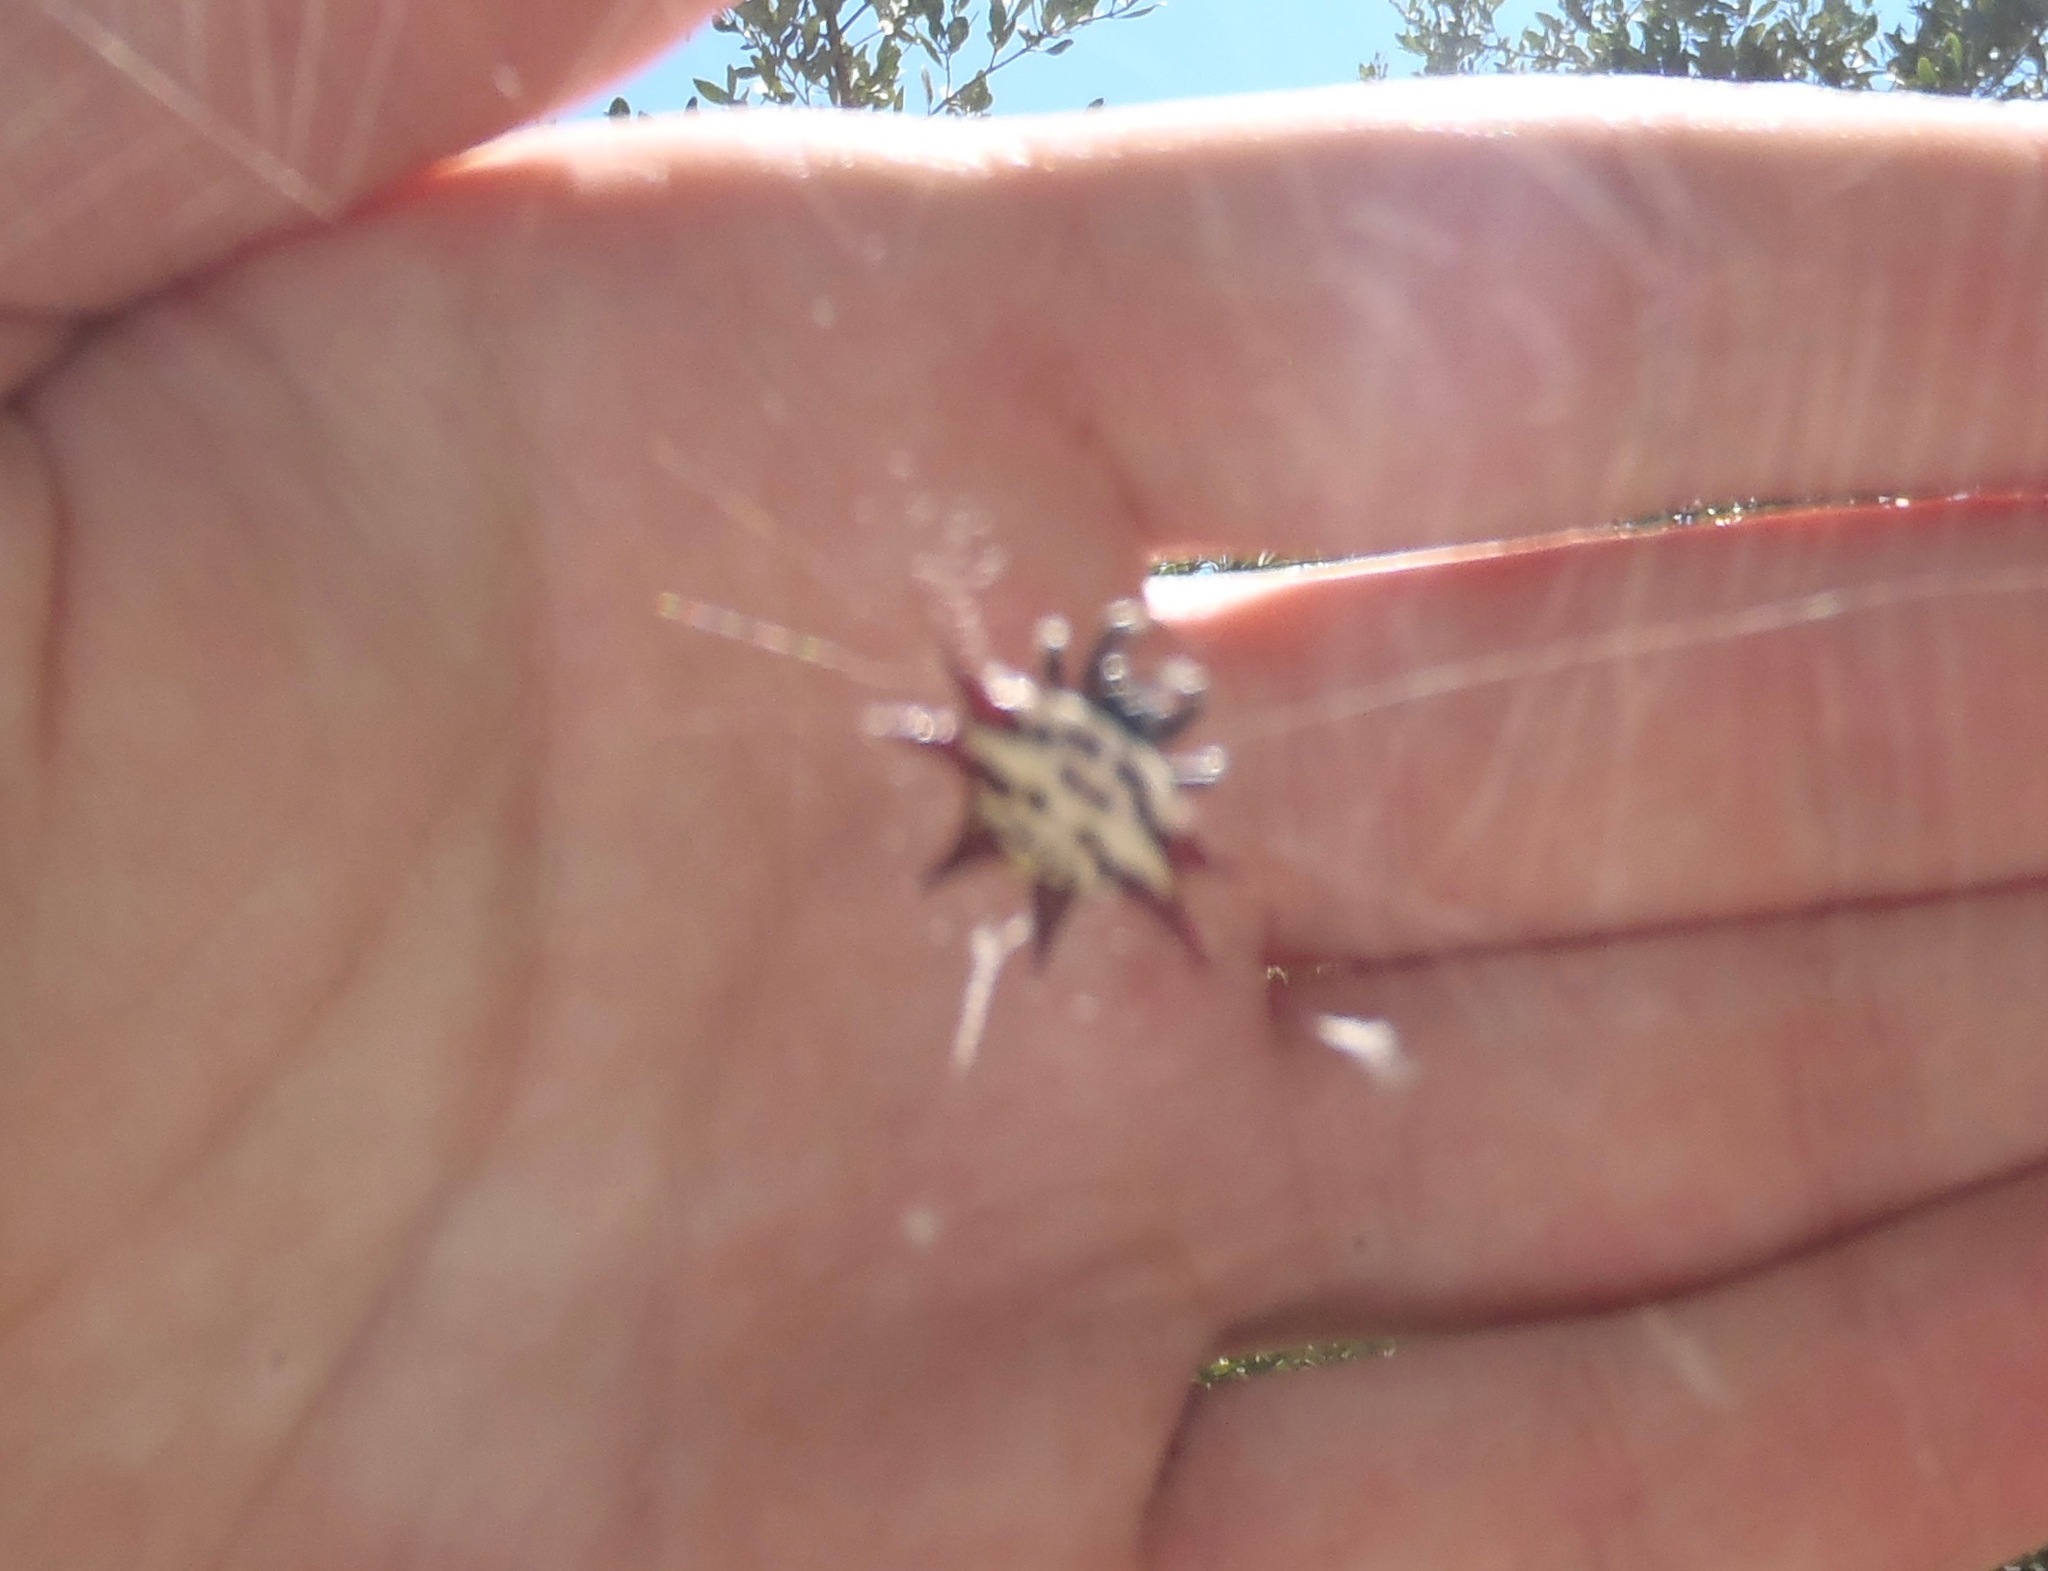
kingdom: Animalia
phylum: Arthropoda
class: Arachnida
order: Araneae
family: Araneidae
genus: Gasteracantha
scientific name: Gasteracantha cancriformis
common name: Orb weavers
